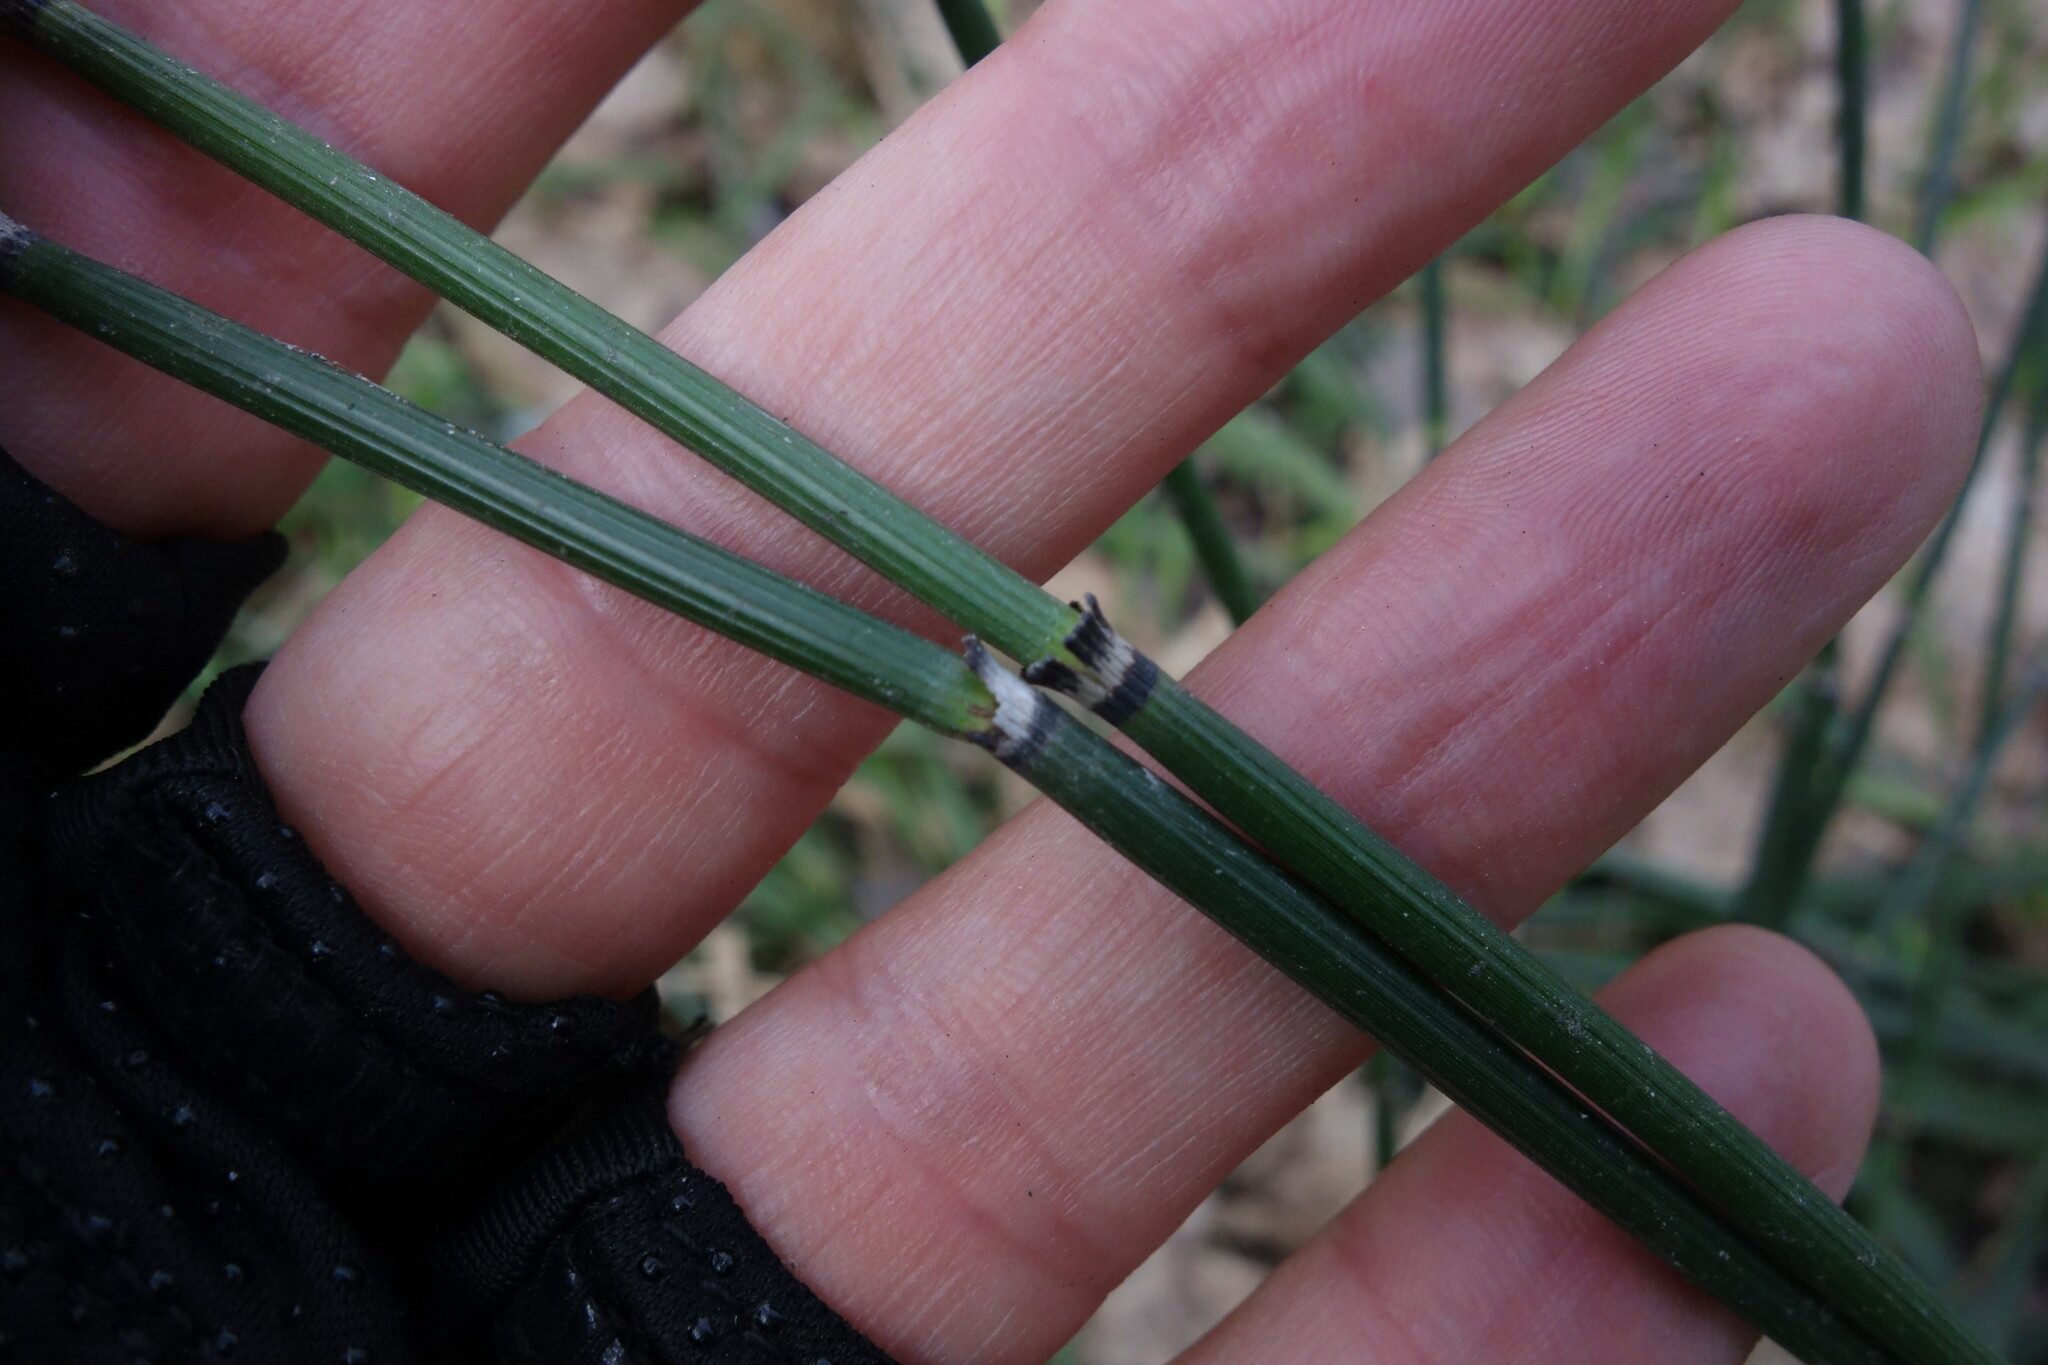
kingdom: Plantae
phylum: Tracheophyta
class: Polypodiopsida
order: Equisetales
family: Equisetaceae
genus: Equisetum
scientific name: Equisetum hyemale
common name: Rough horsetail
